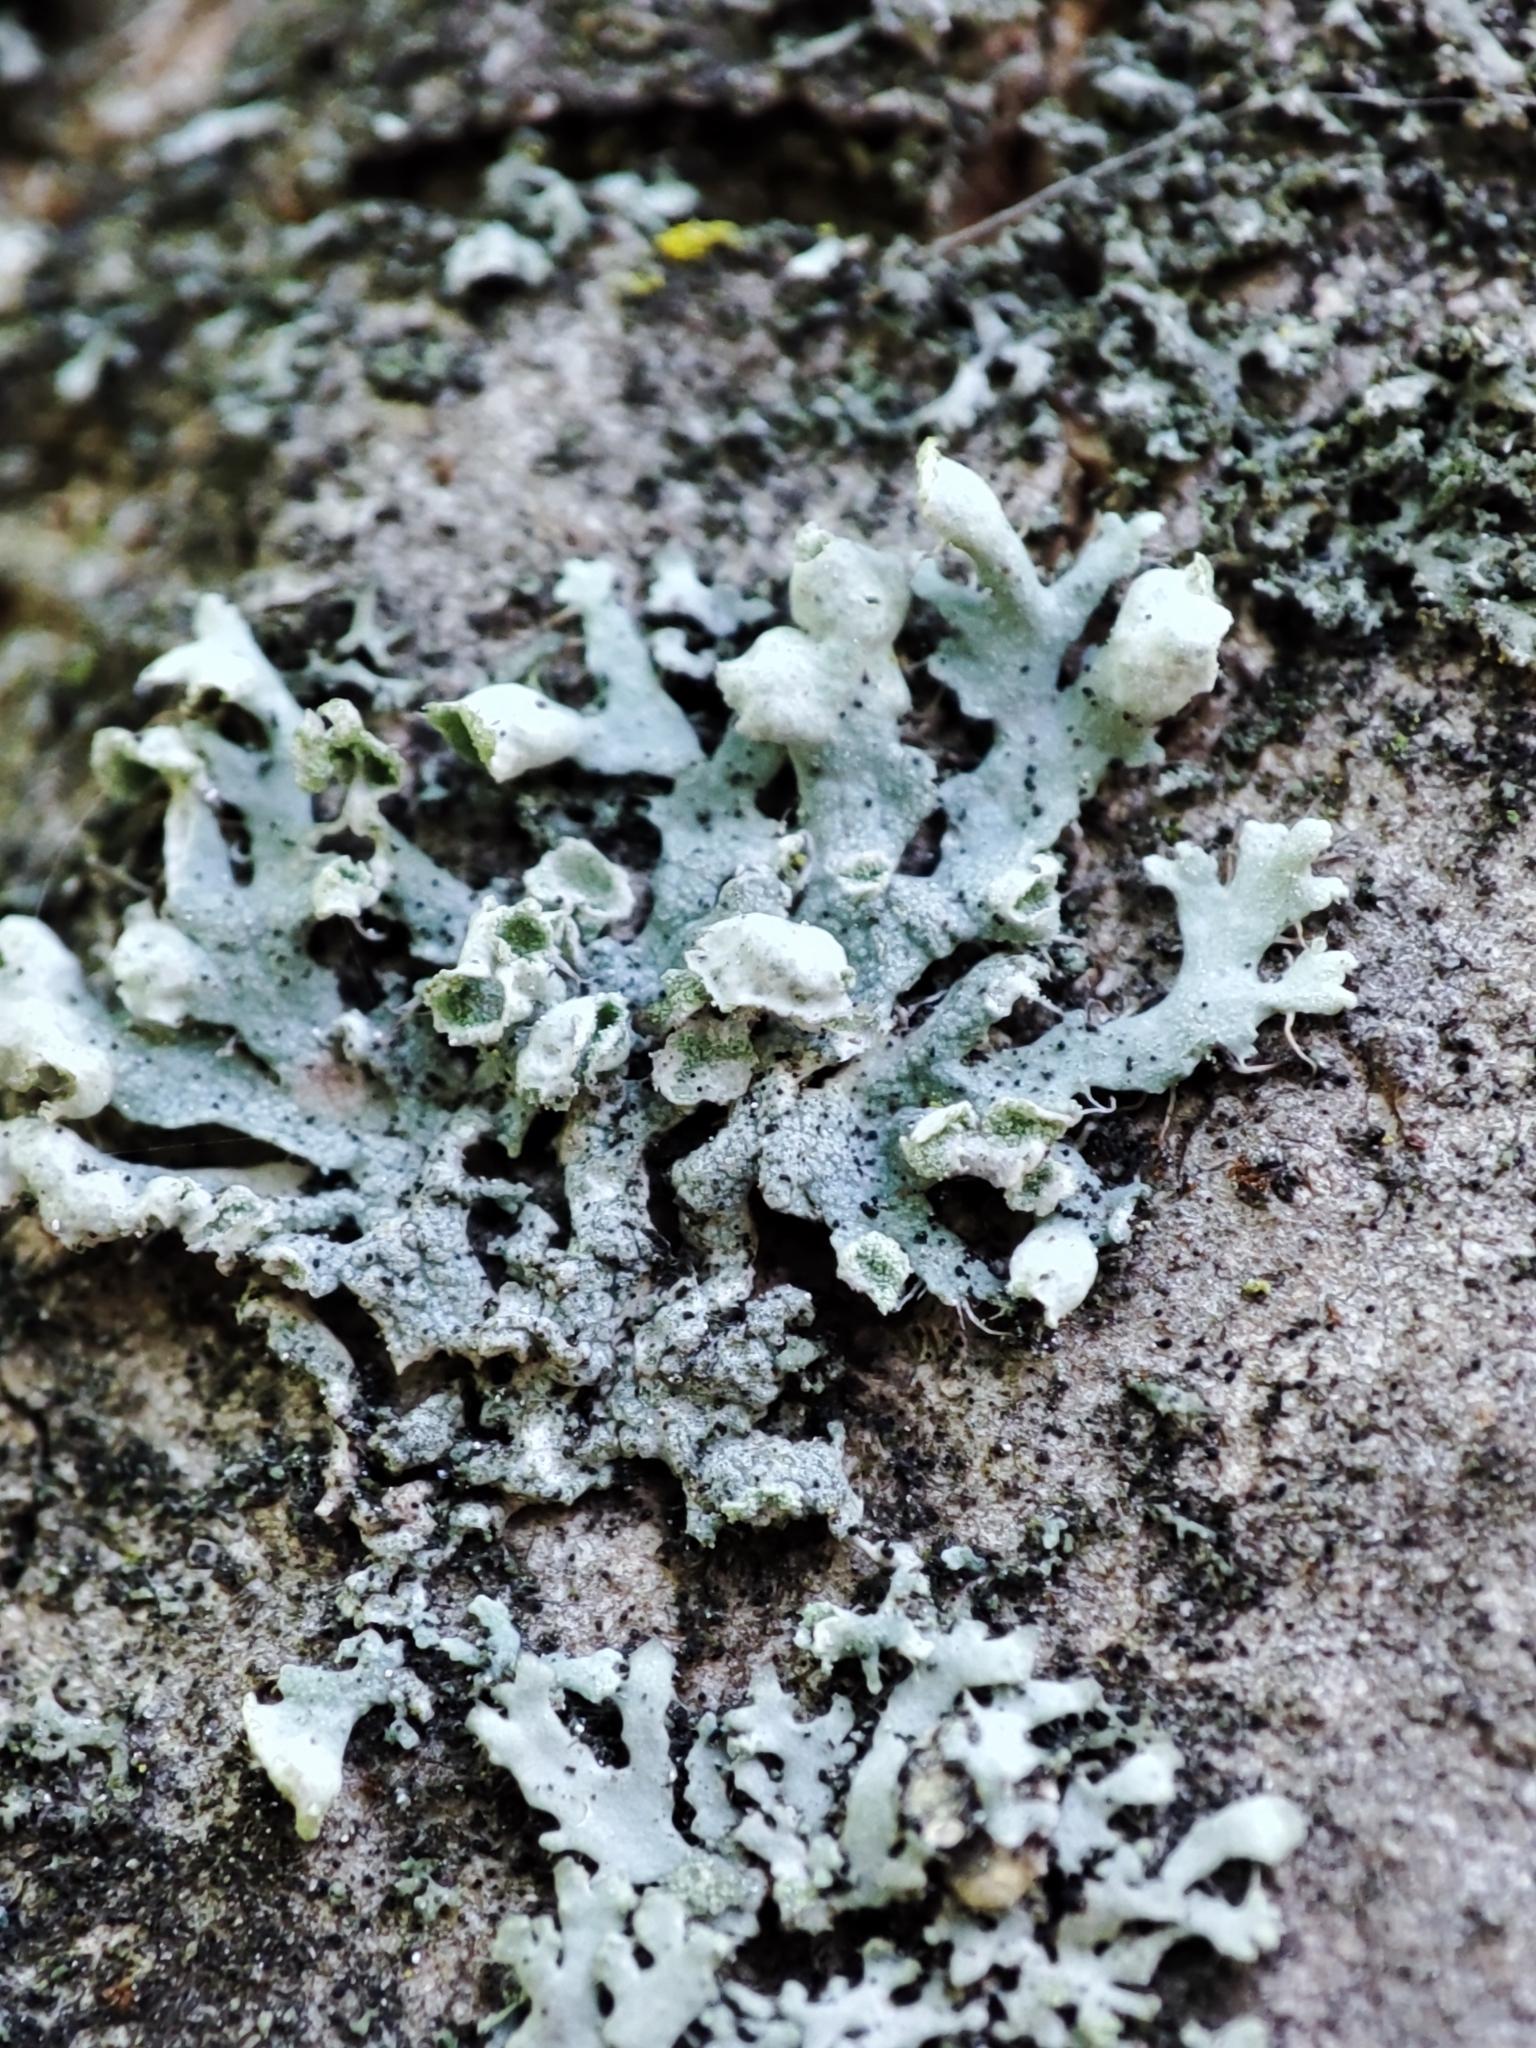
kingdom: Fungi
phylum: Ascomycota
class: Lecanoromycetes
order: Caliciales
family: Physciaceae
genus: Physcia
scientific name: Physcia adscendens
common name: Hooded rosette lichen
